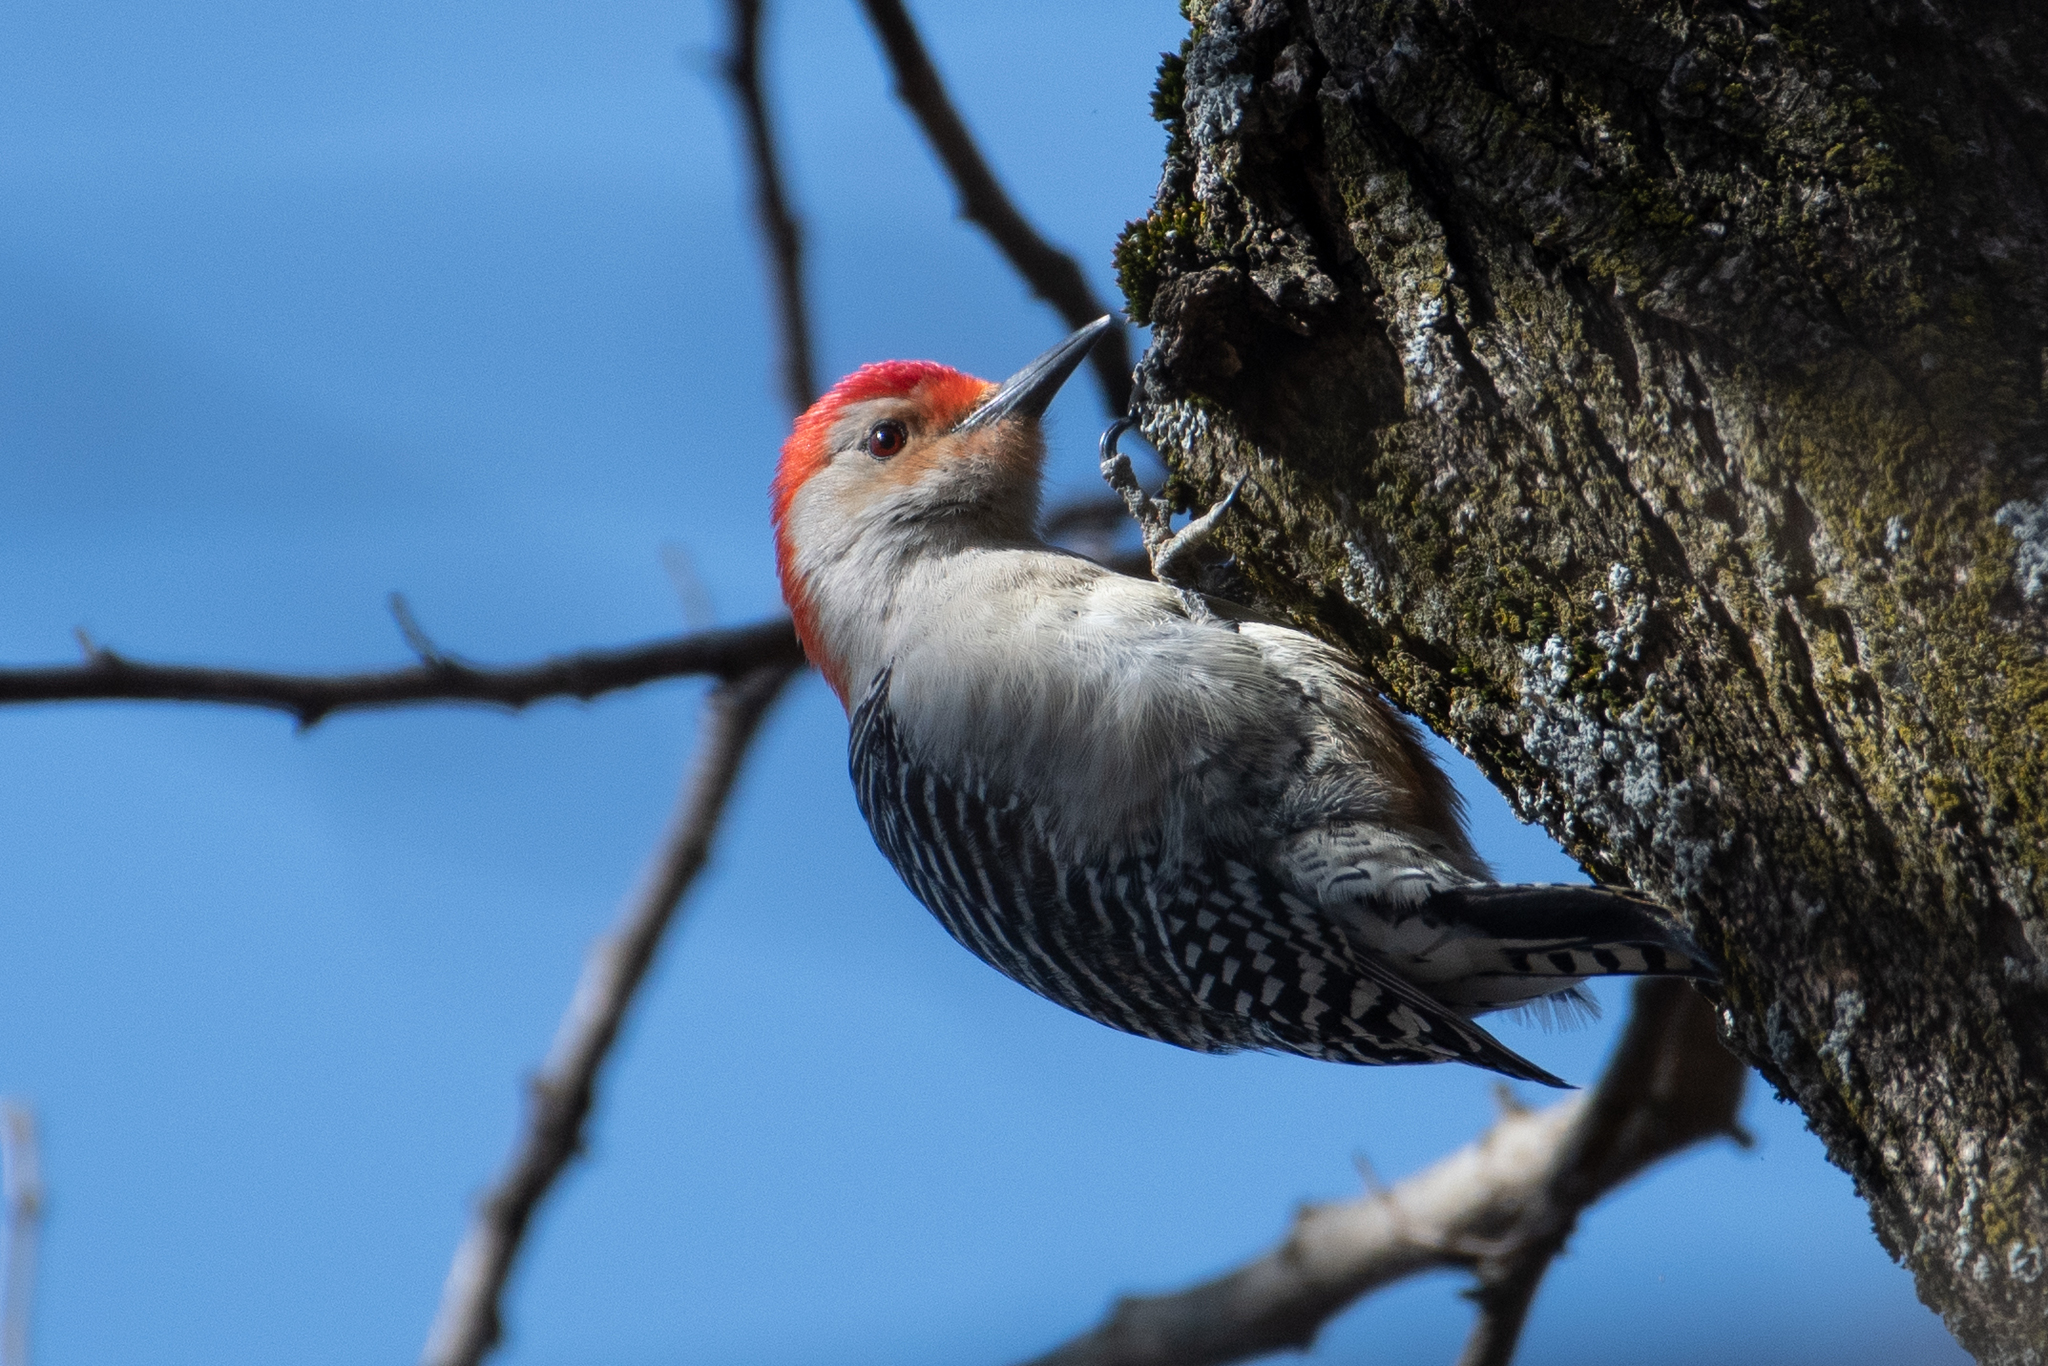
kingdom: Animalia
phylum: Chordata
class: Aves
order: Piciformes
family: Picidae
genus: Melanerpes
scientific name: Melanerpes carolinus
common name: Red-bellied woodpecker
